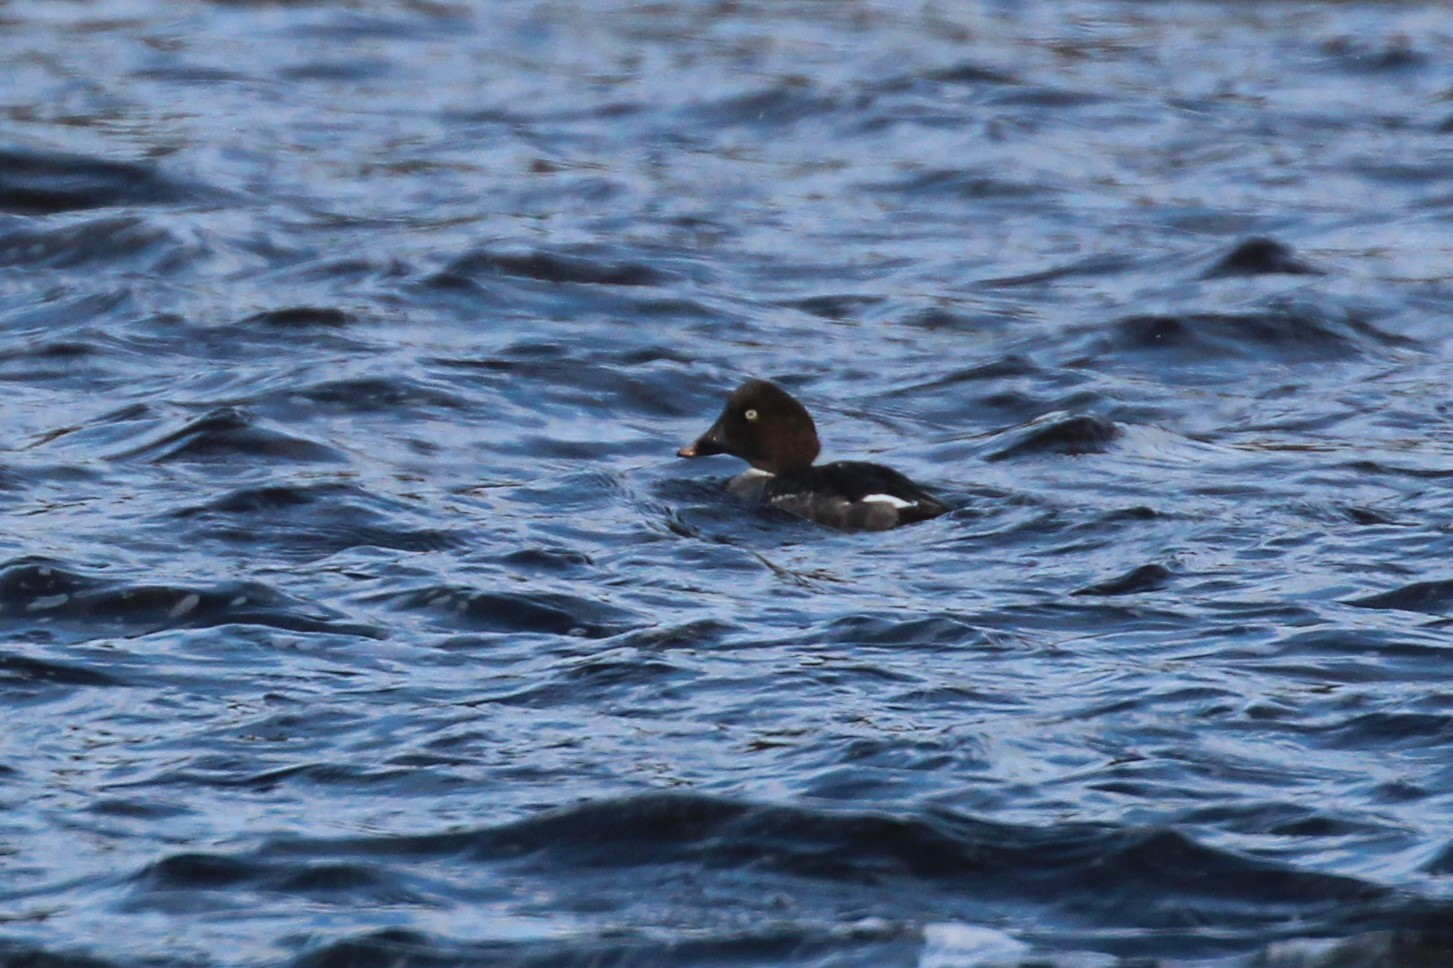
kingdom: Animalia
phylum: Chordata
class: Aves
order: Anseriformes
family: Anatidae
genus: Bucephala
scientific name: Bucephala clangula
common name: Common goldeneye
